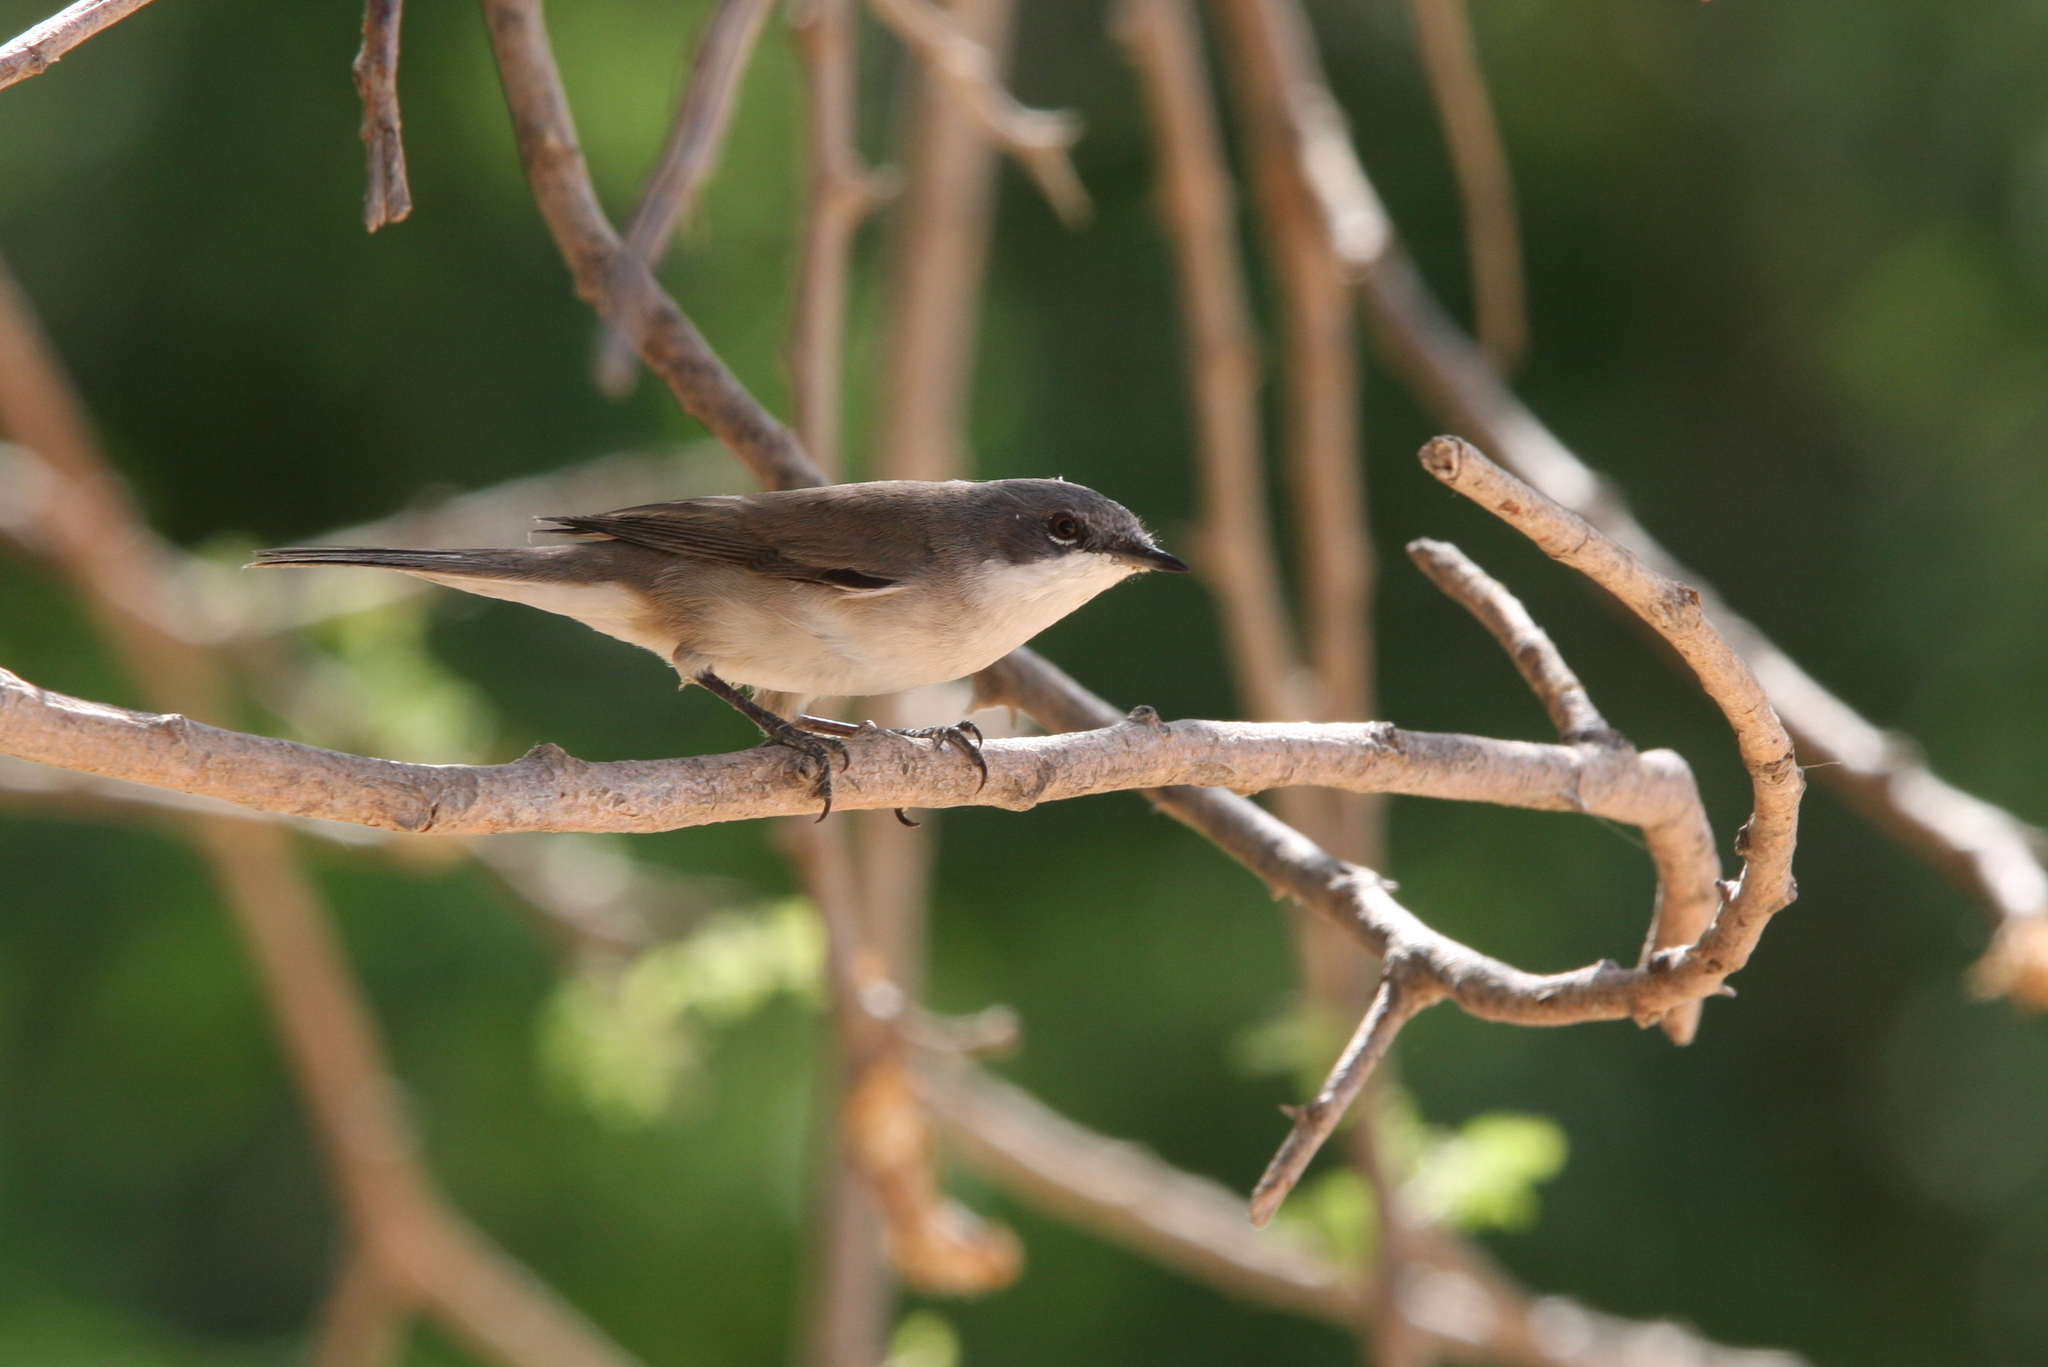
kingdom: Animalia
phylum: Chordata
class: Aves
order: Passeriformes
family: Sylviidae
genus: Sylvia
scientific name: Sylvia curruca
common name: Lesser whitethroat
